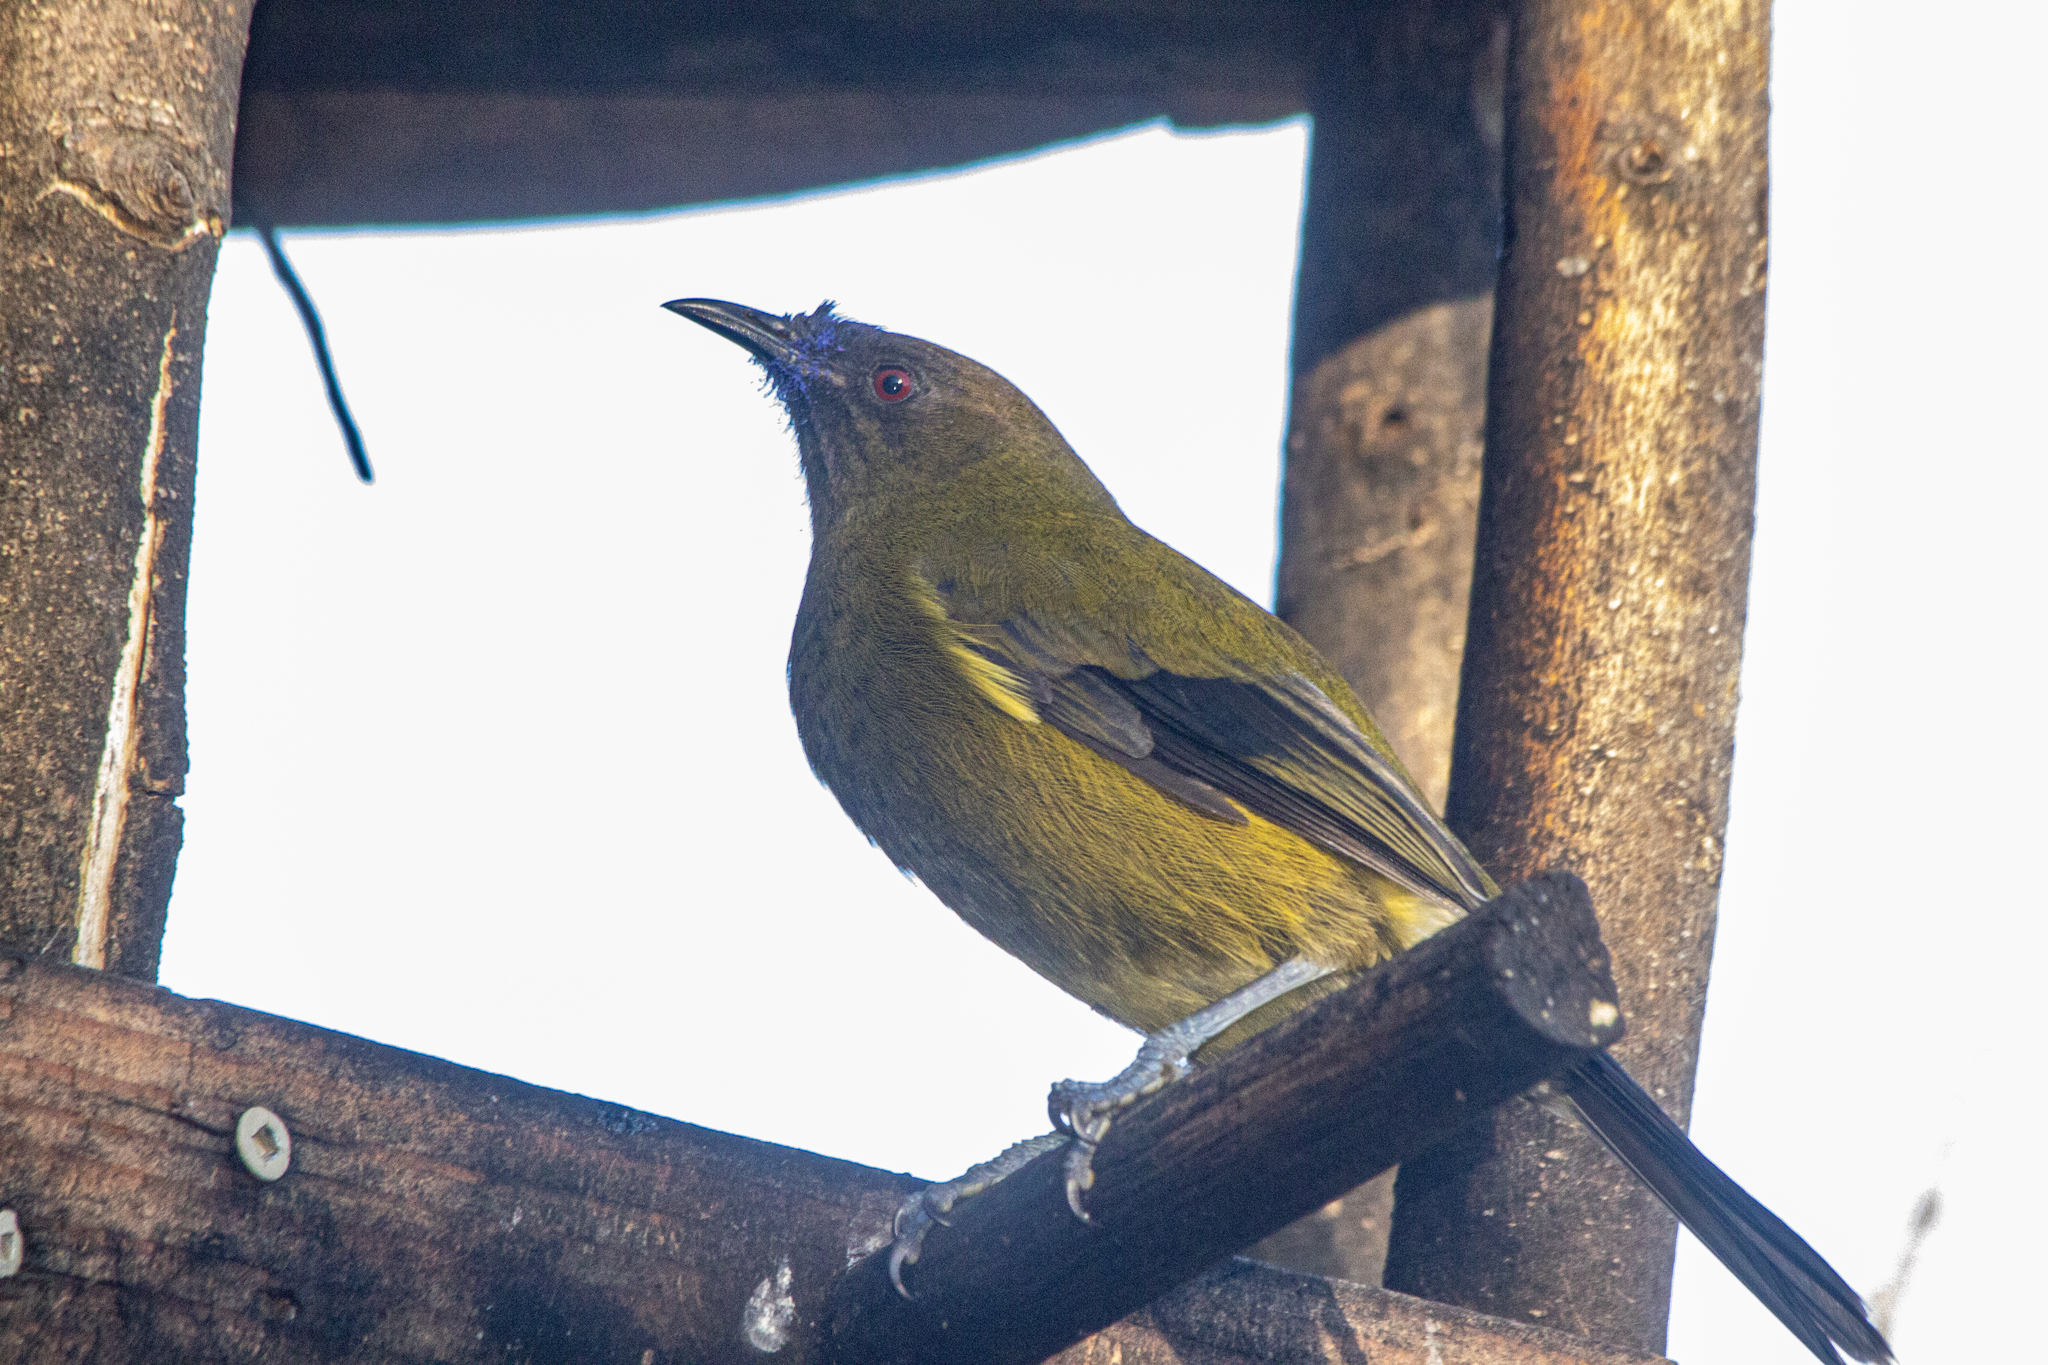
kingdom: Animalia
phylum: Chordata
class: Aves
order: Passeriformes
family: Meliphagidae
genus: Anthornis
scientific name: Anthornis melanura
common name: New zealand bellbird
